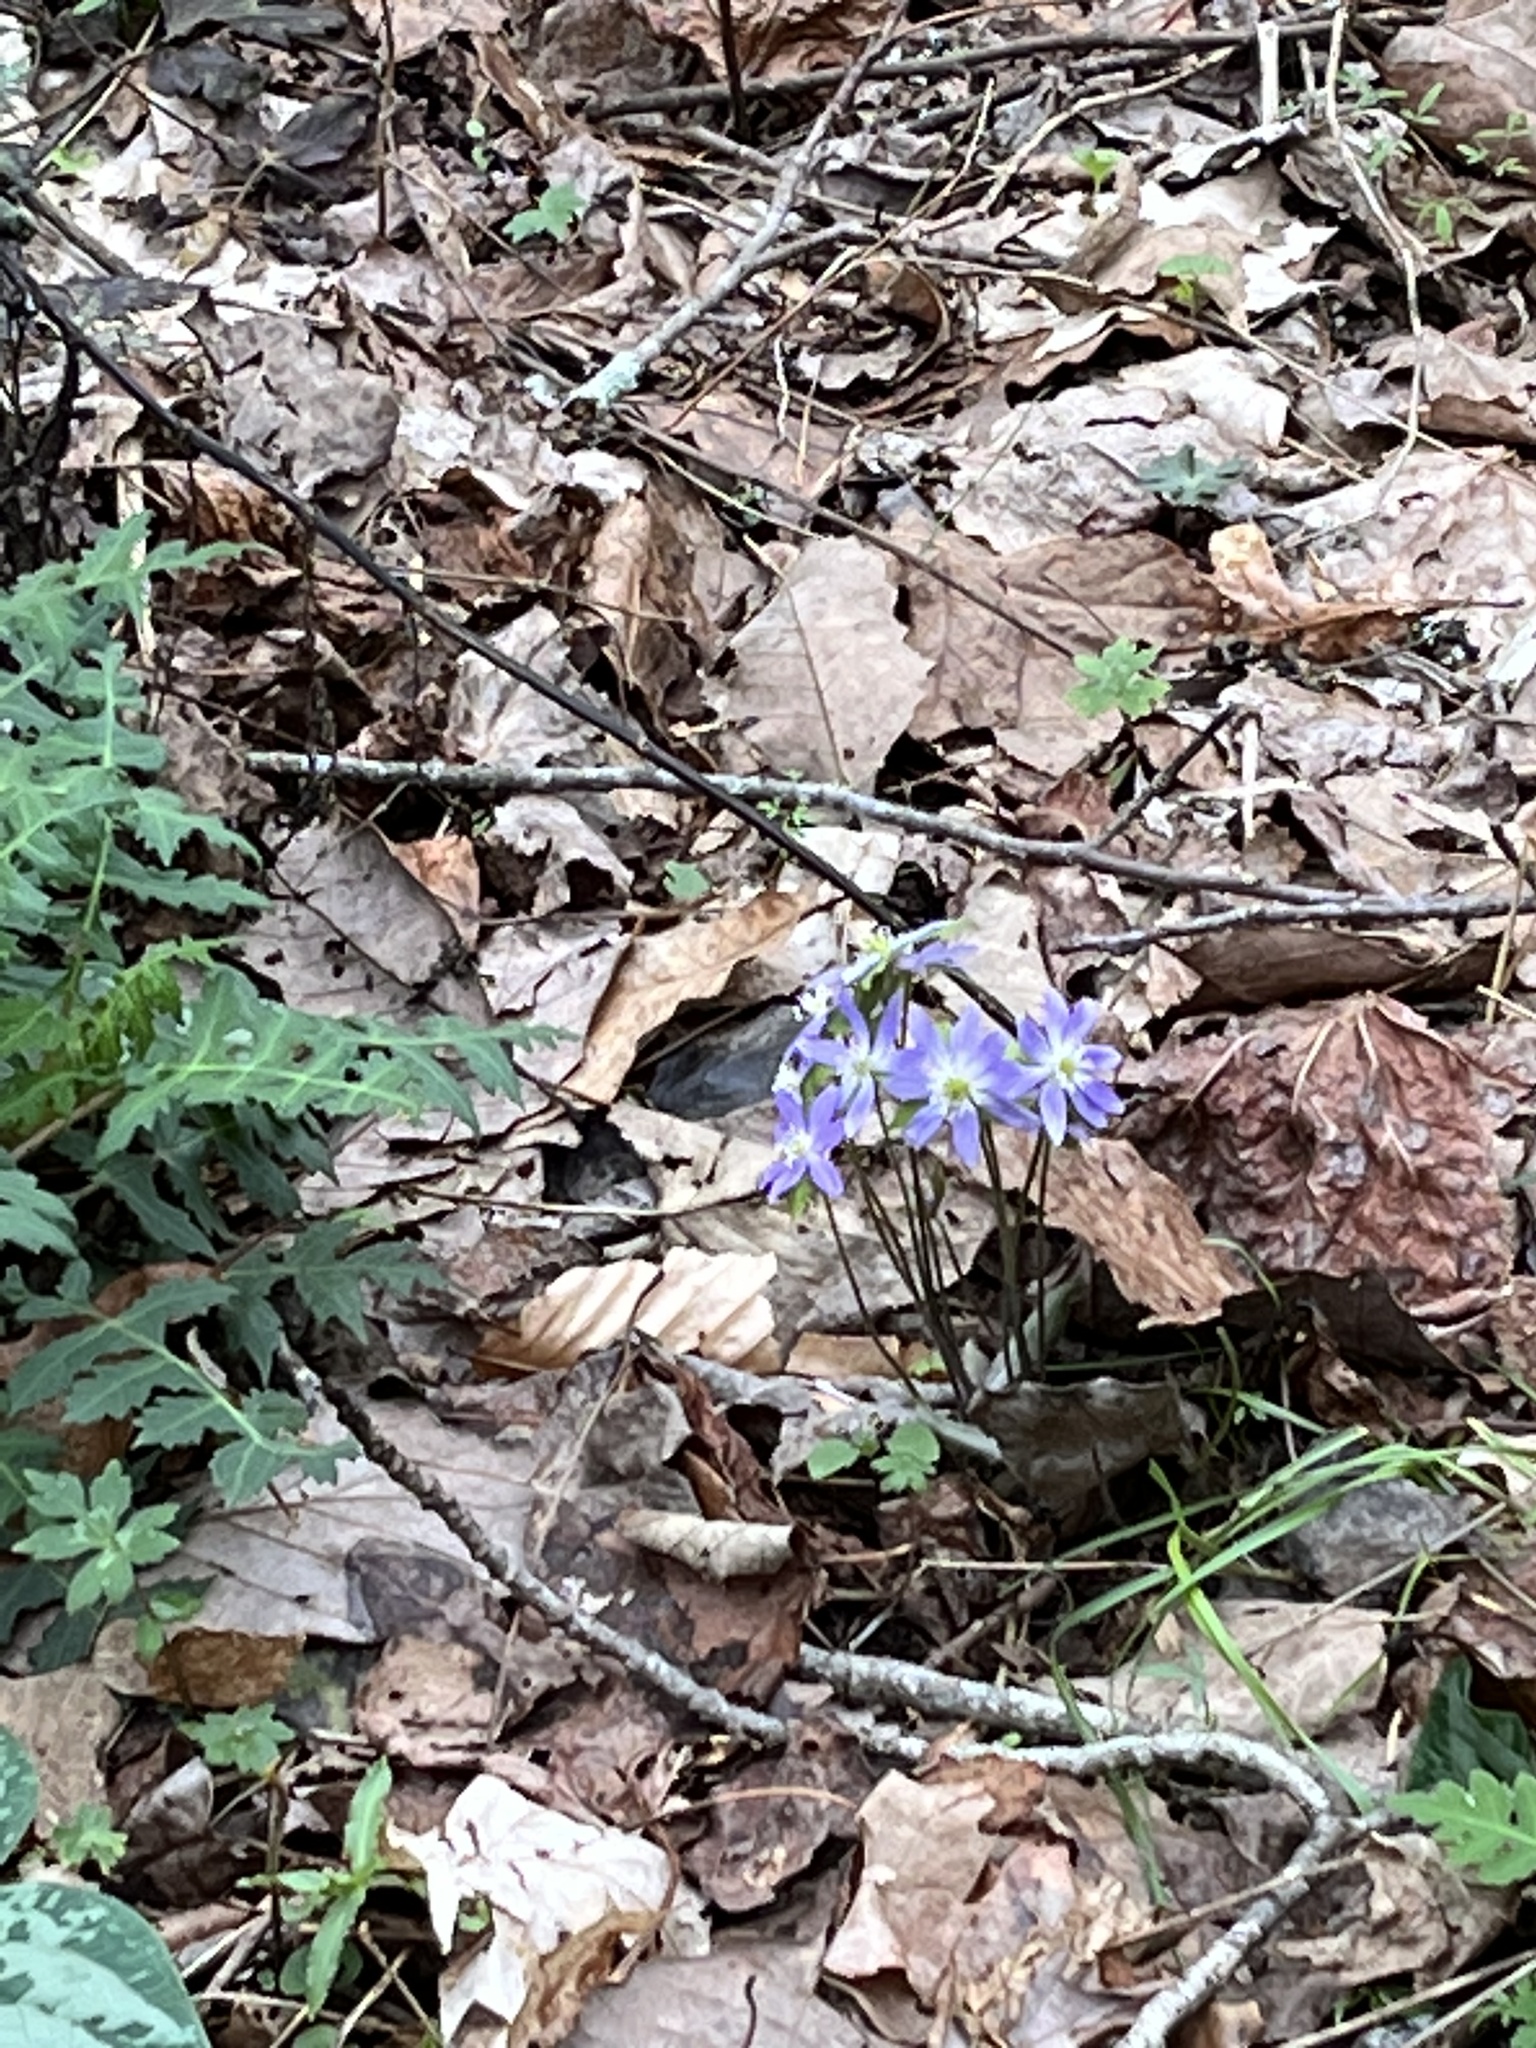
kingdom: Plantae
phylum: Tracheophyta
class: Magnoliopsida
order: Ranunculales
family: Ranunculaceae
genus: Hepatica
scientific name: Hepatica acutiloba
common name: Sharp-lobed hepatica
